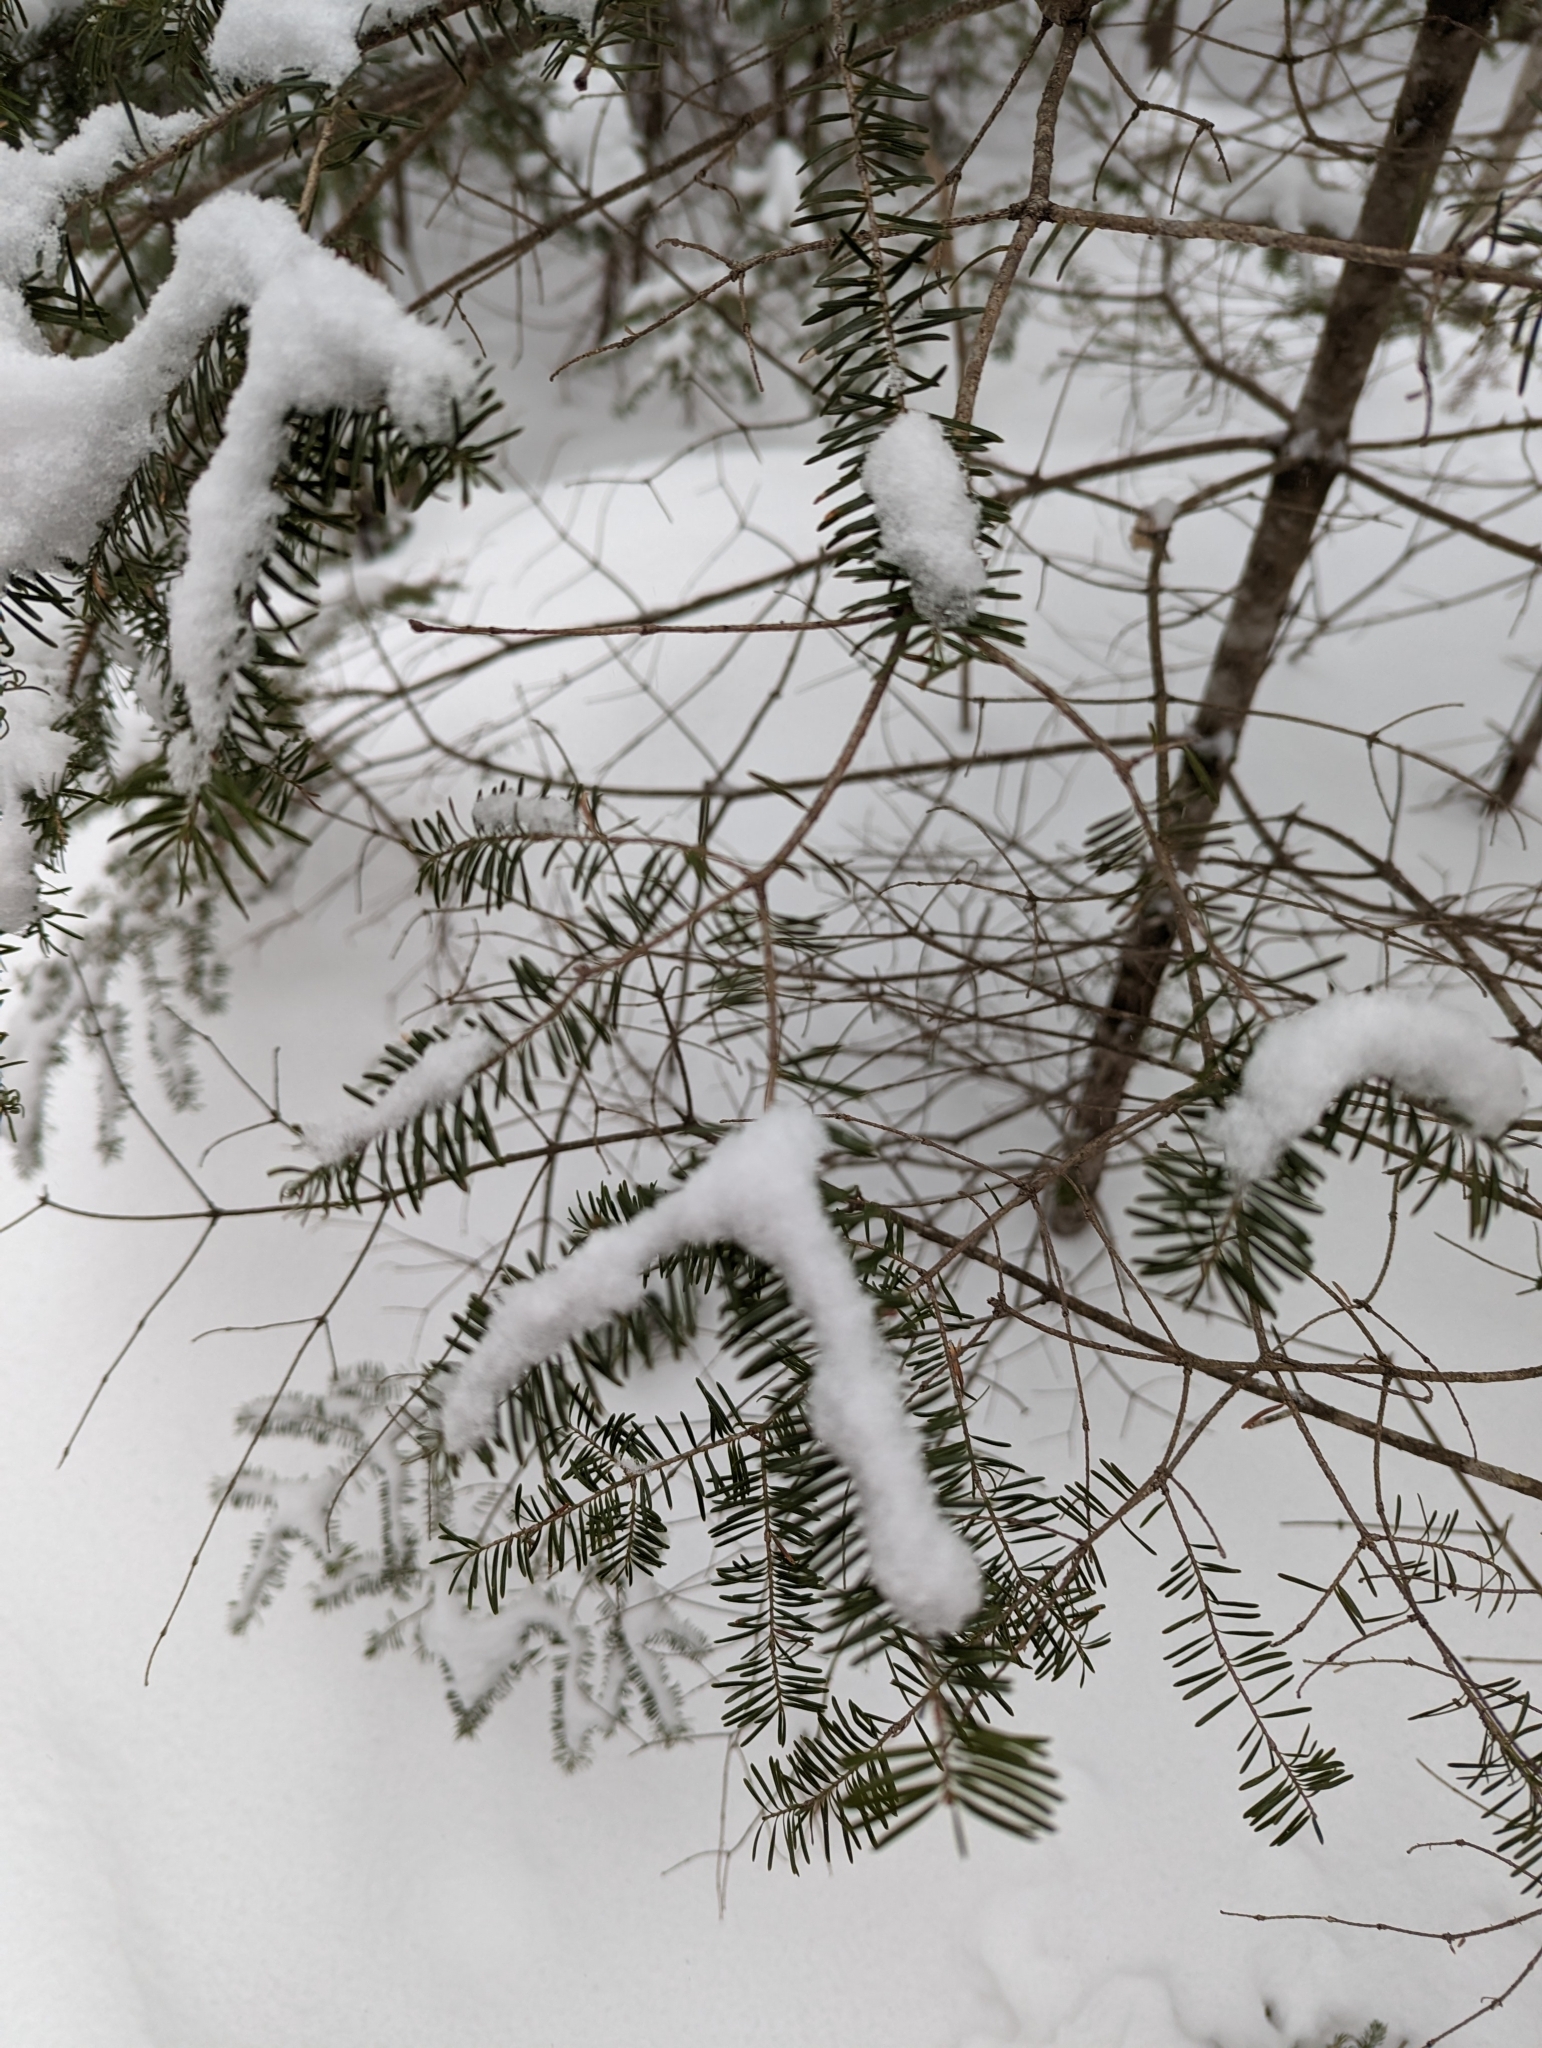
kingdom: Plantae
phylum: Tracheophyta
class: Pinopsida
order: Pinales
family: Pinaceae
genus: Abies
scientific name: Abies balsamea
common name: Balsam fir
